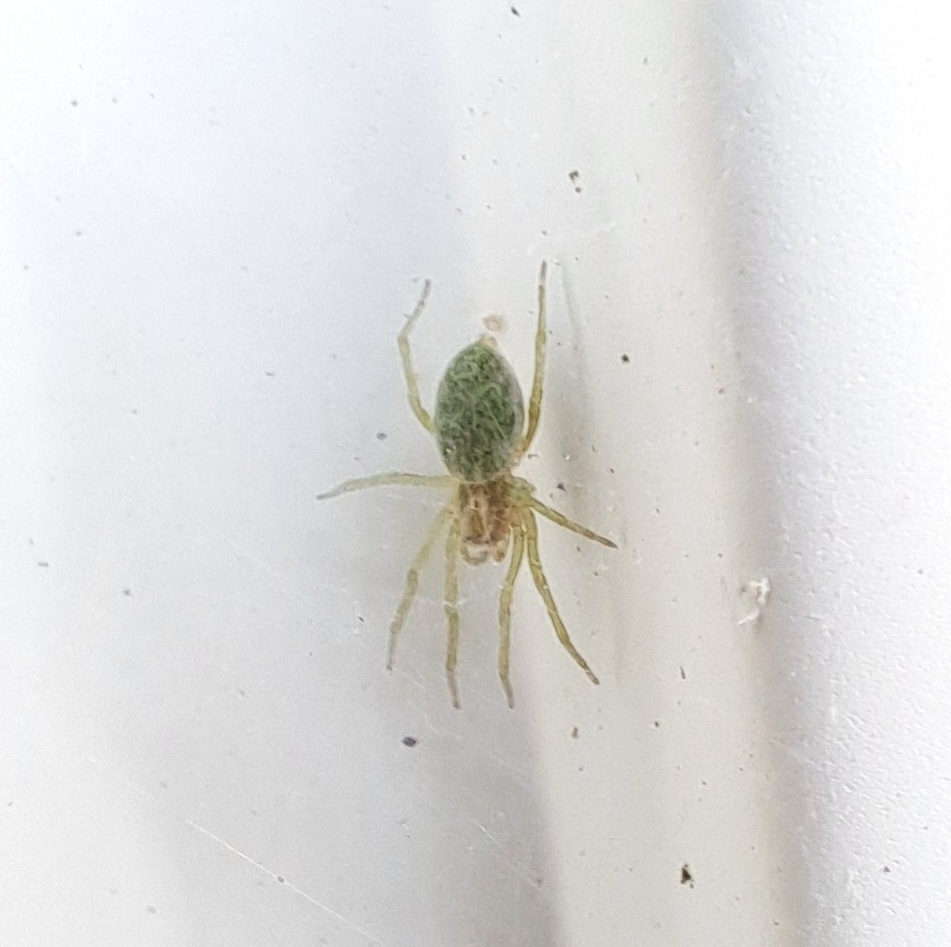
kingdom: Animalia
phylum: Arthropoda
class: Arachnida
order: Araneae
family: Dictynidae
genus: Nigma
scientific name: Nigma walckenaeri
